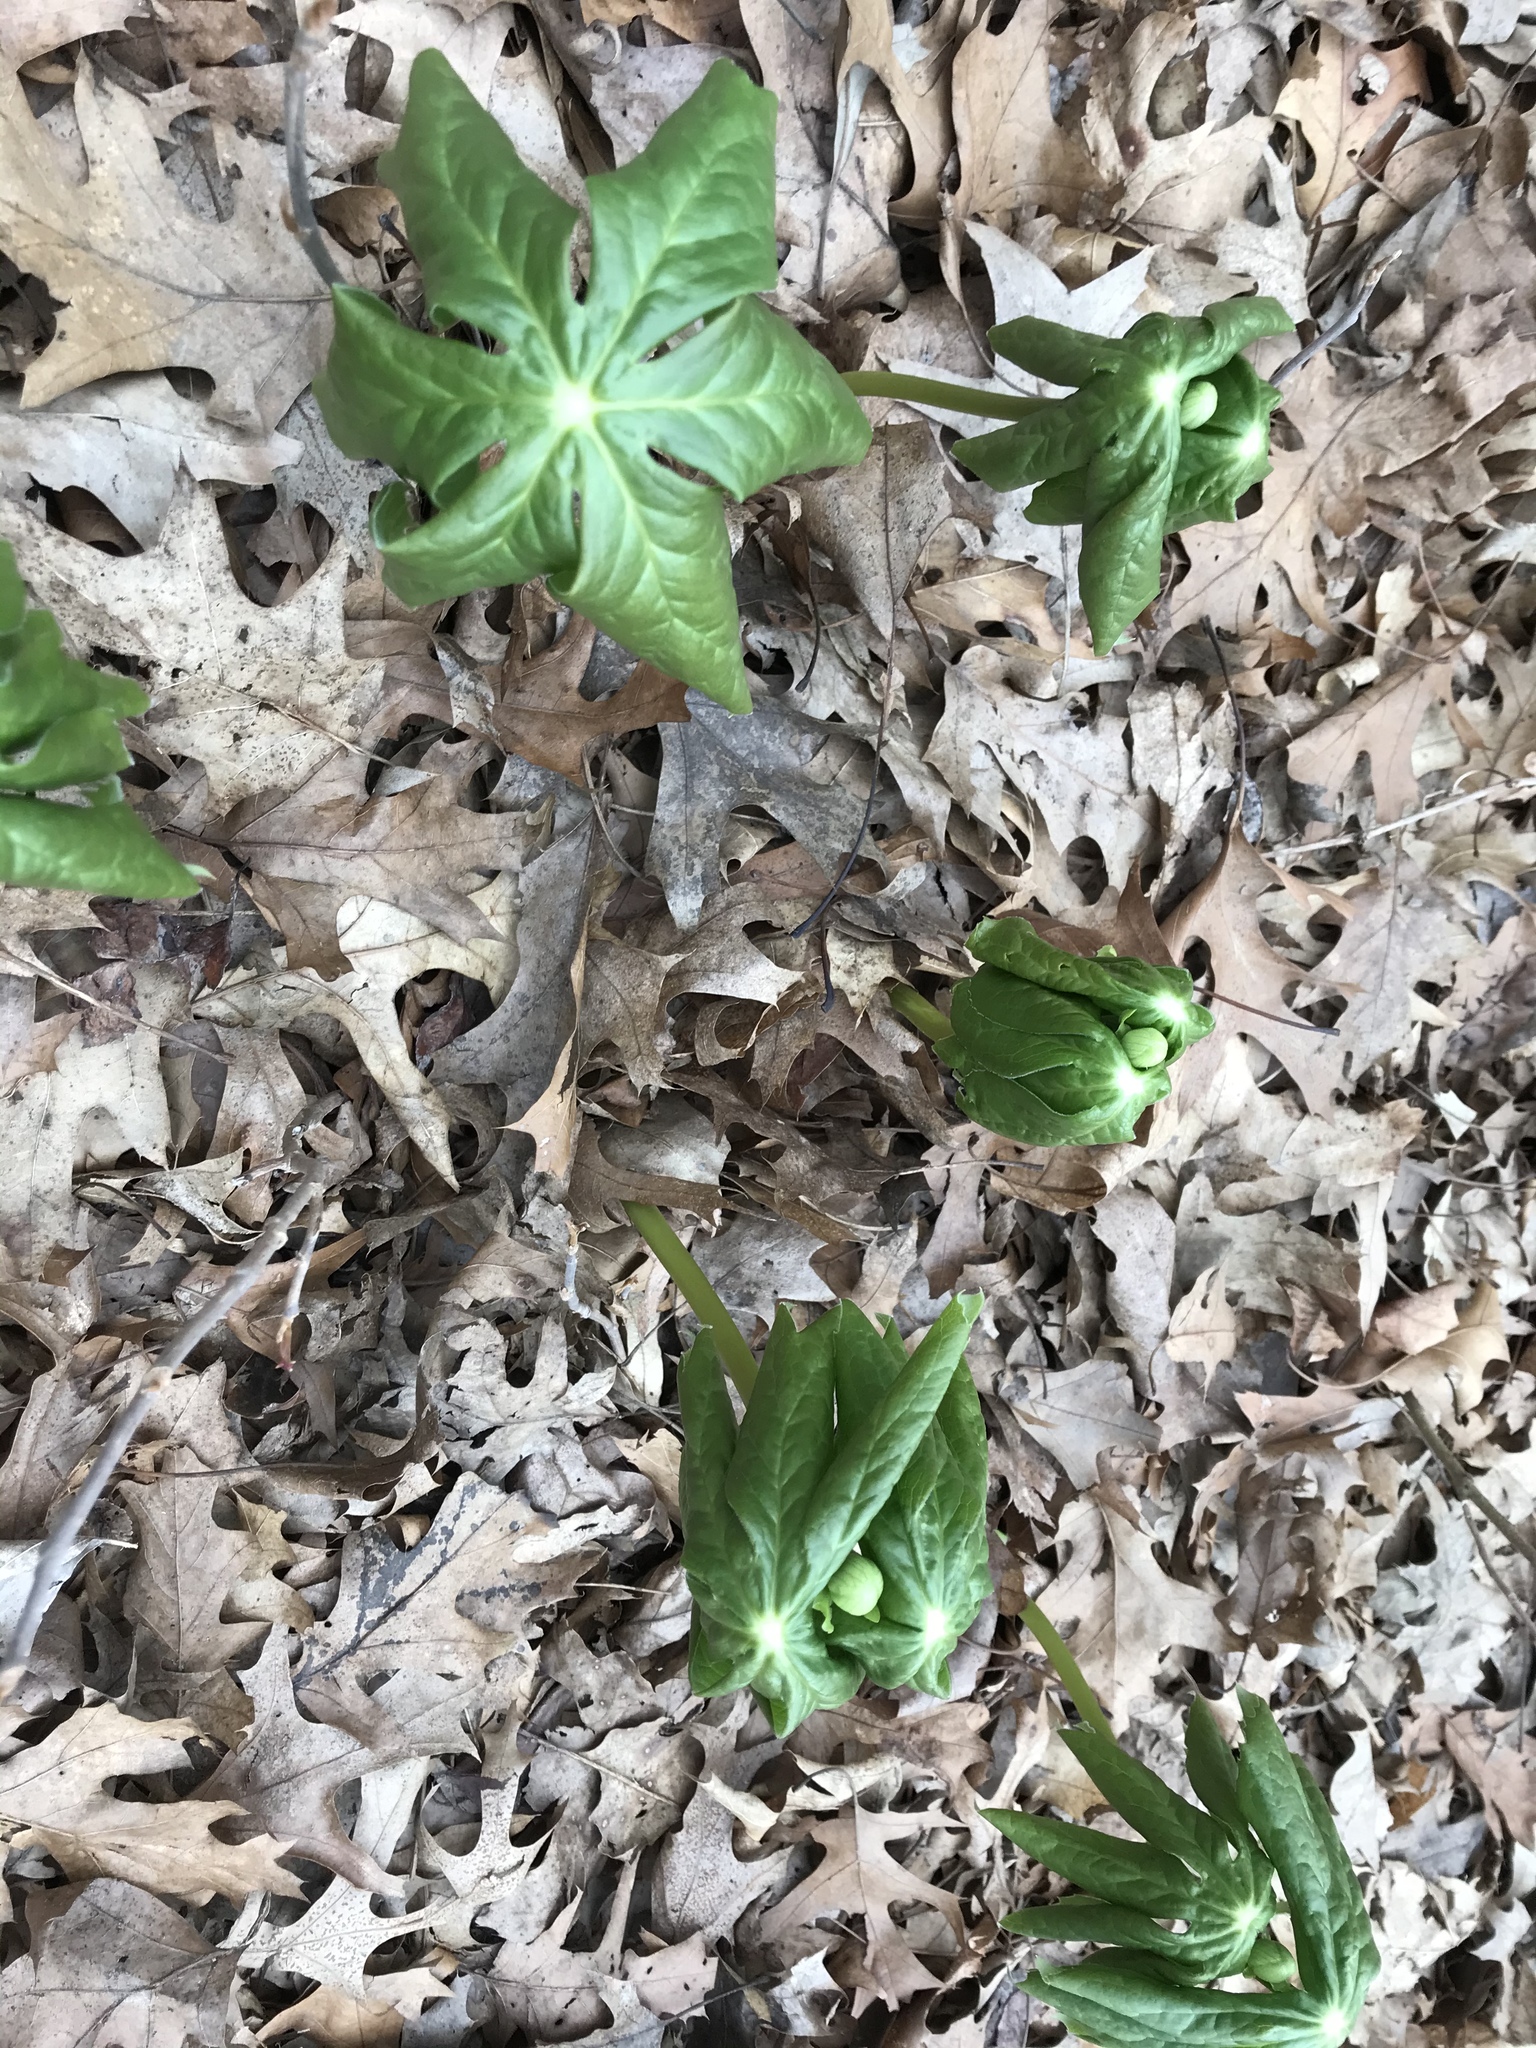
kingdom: Plantae
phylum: Tracheophyta
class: Magnoliopsida
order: Ranunculales
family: Berberidaceae
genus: Podophyllum
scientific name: Podophyllum peltatum
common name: Wild mandrake
